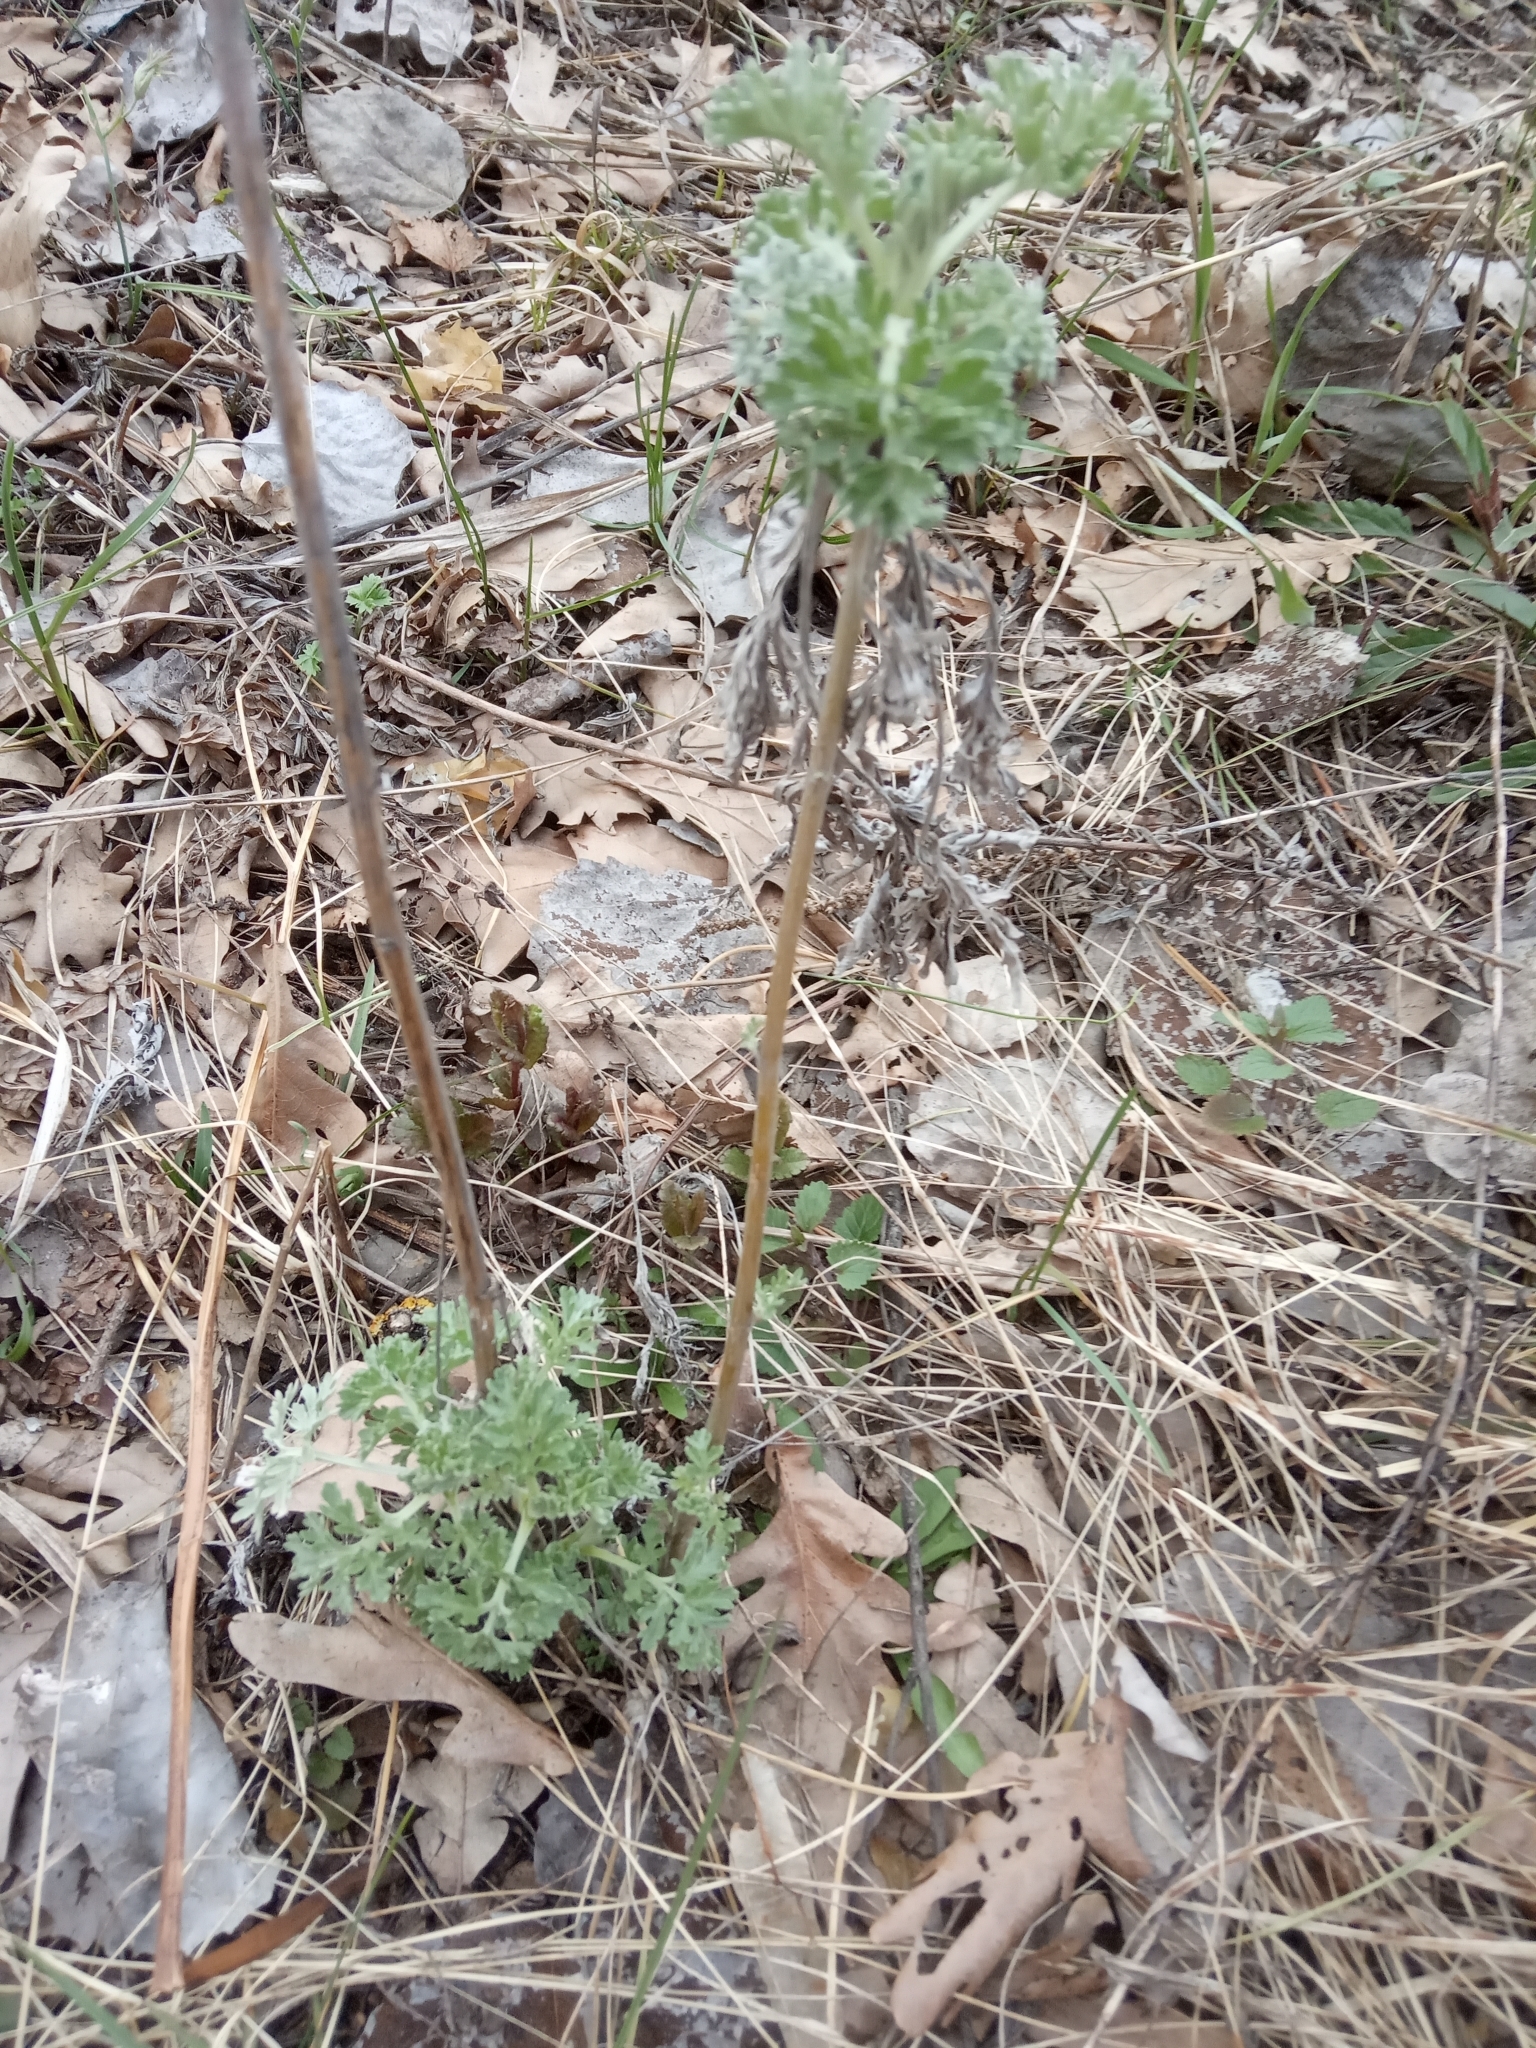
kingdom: Plantae
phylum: Tracheophyta
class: Magnoliopsida
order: Asterales
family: Asteraceae
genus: Artemisia
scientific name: Artemisia absinthium
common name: Wormwood
